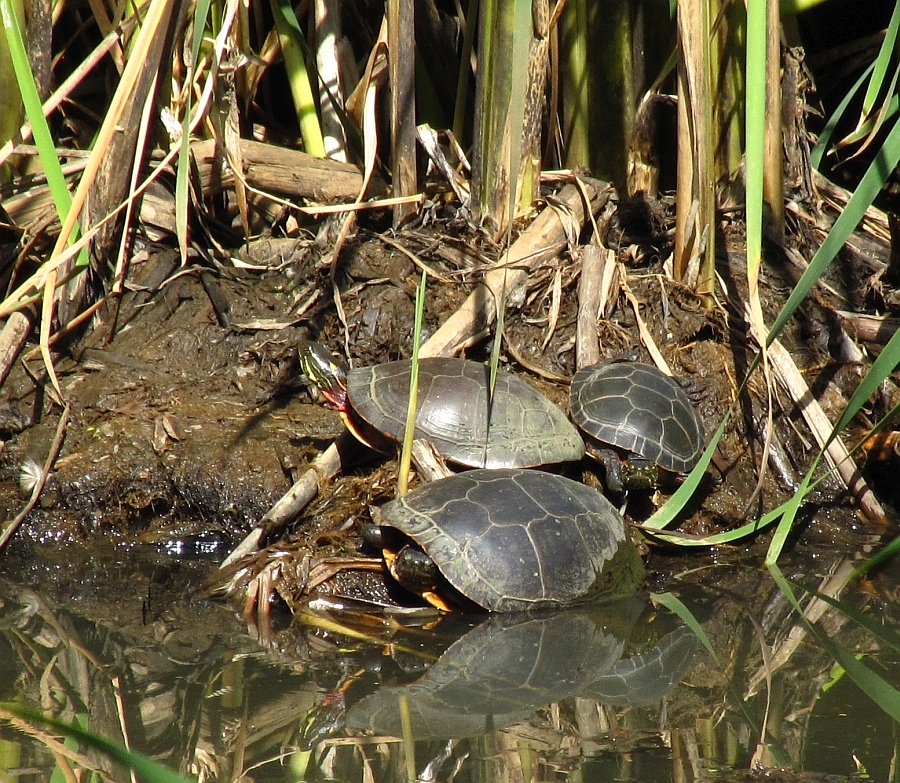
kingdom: Animalia
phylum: Chordata
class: Testudines
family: Emydidae
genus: Chrysemys
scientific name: Chrysemys picta
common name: Painted turtle
